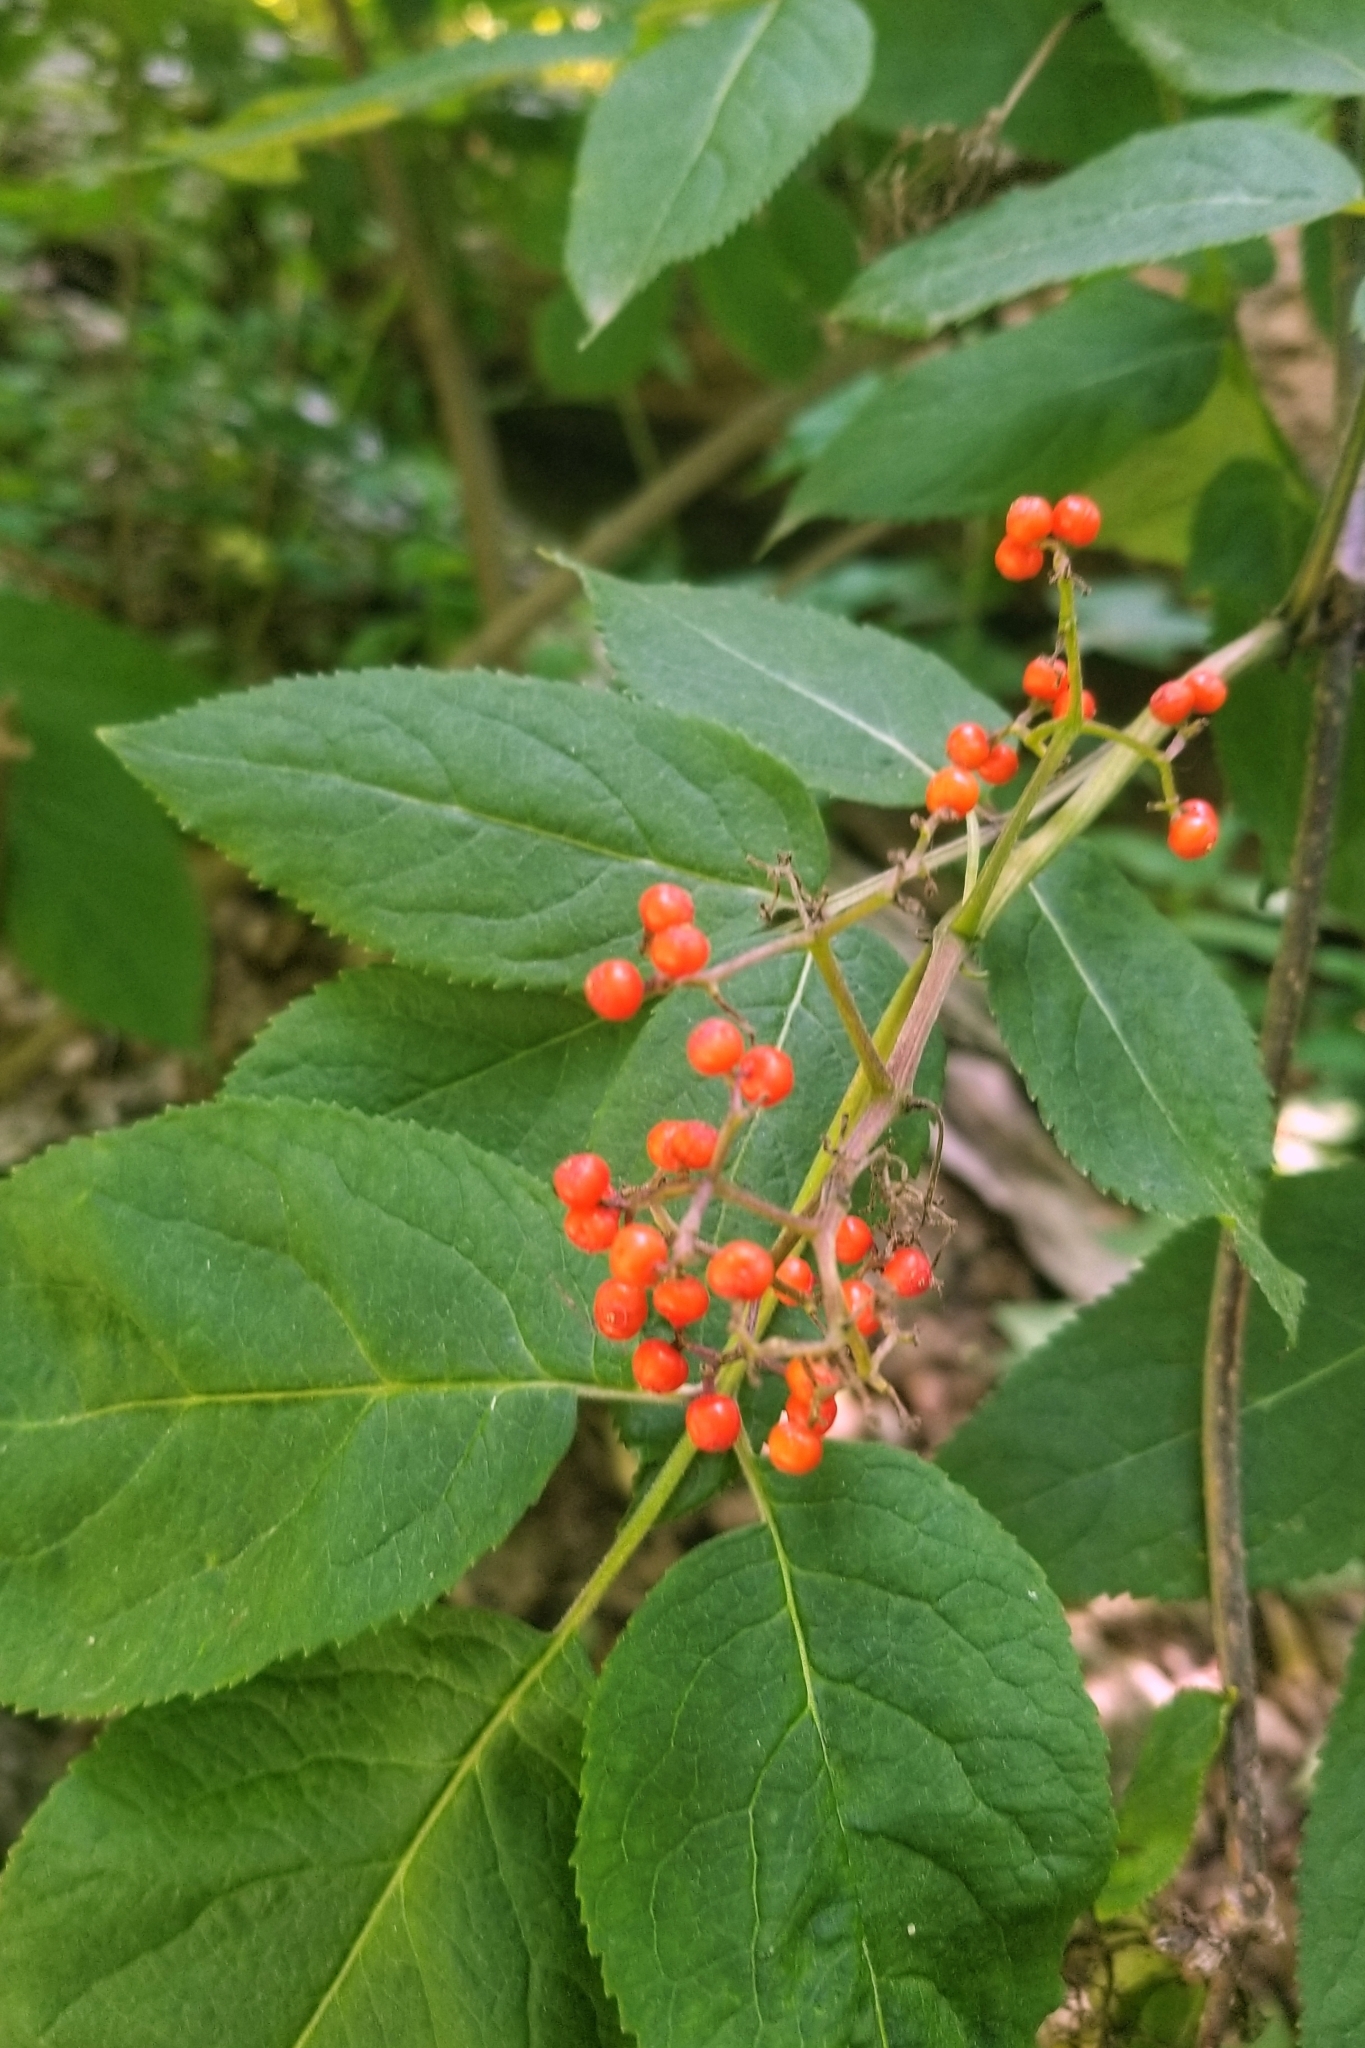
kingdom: Plantae
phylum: Tracheophyta
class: Magnoliopsida
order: Dipsacales
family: Viburnaceae
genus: Sambucus
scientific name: Sambucus racemosa
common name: Red-berried elder
